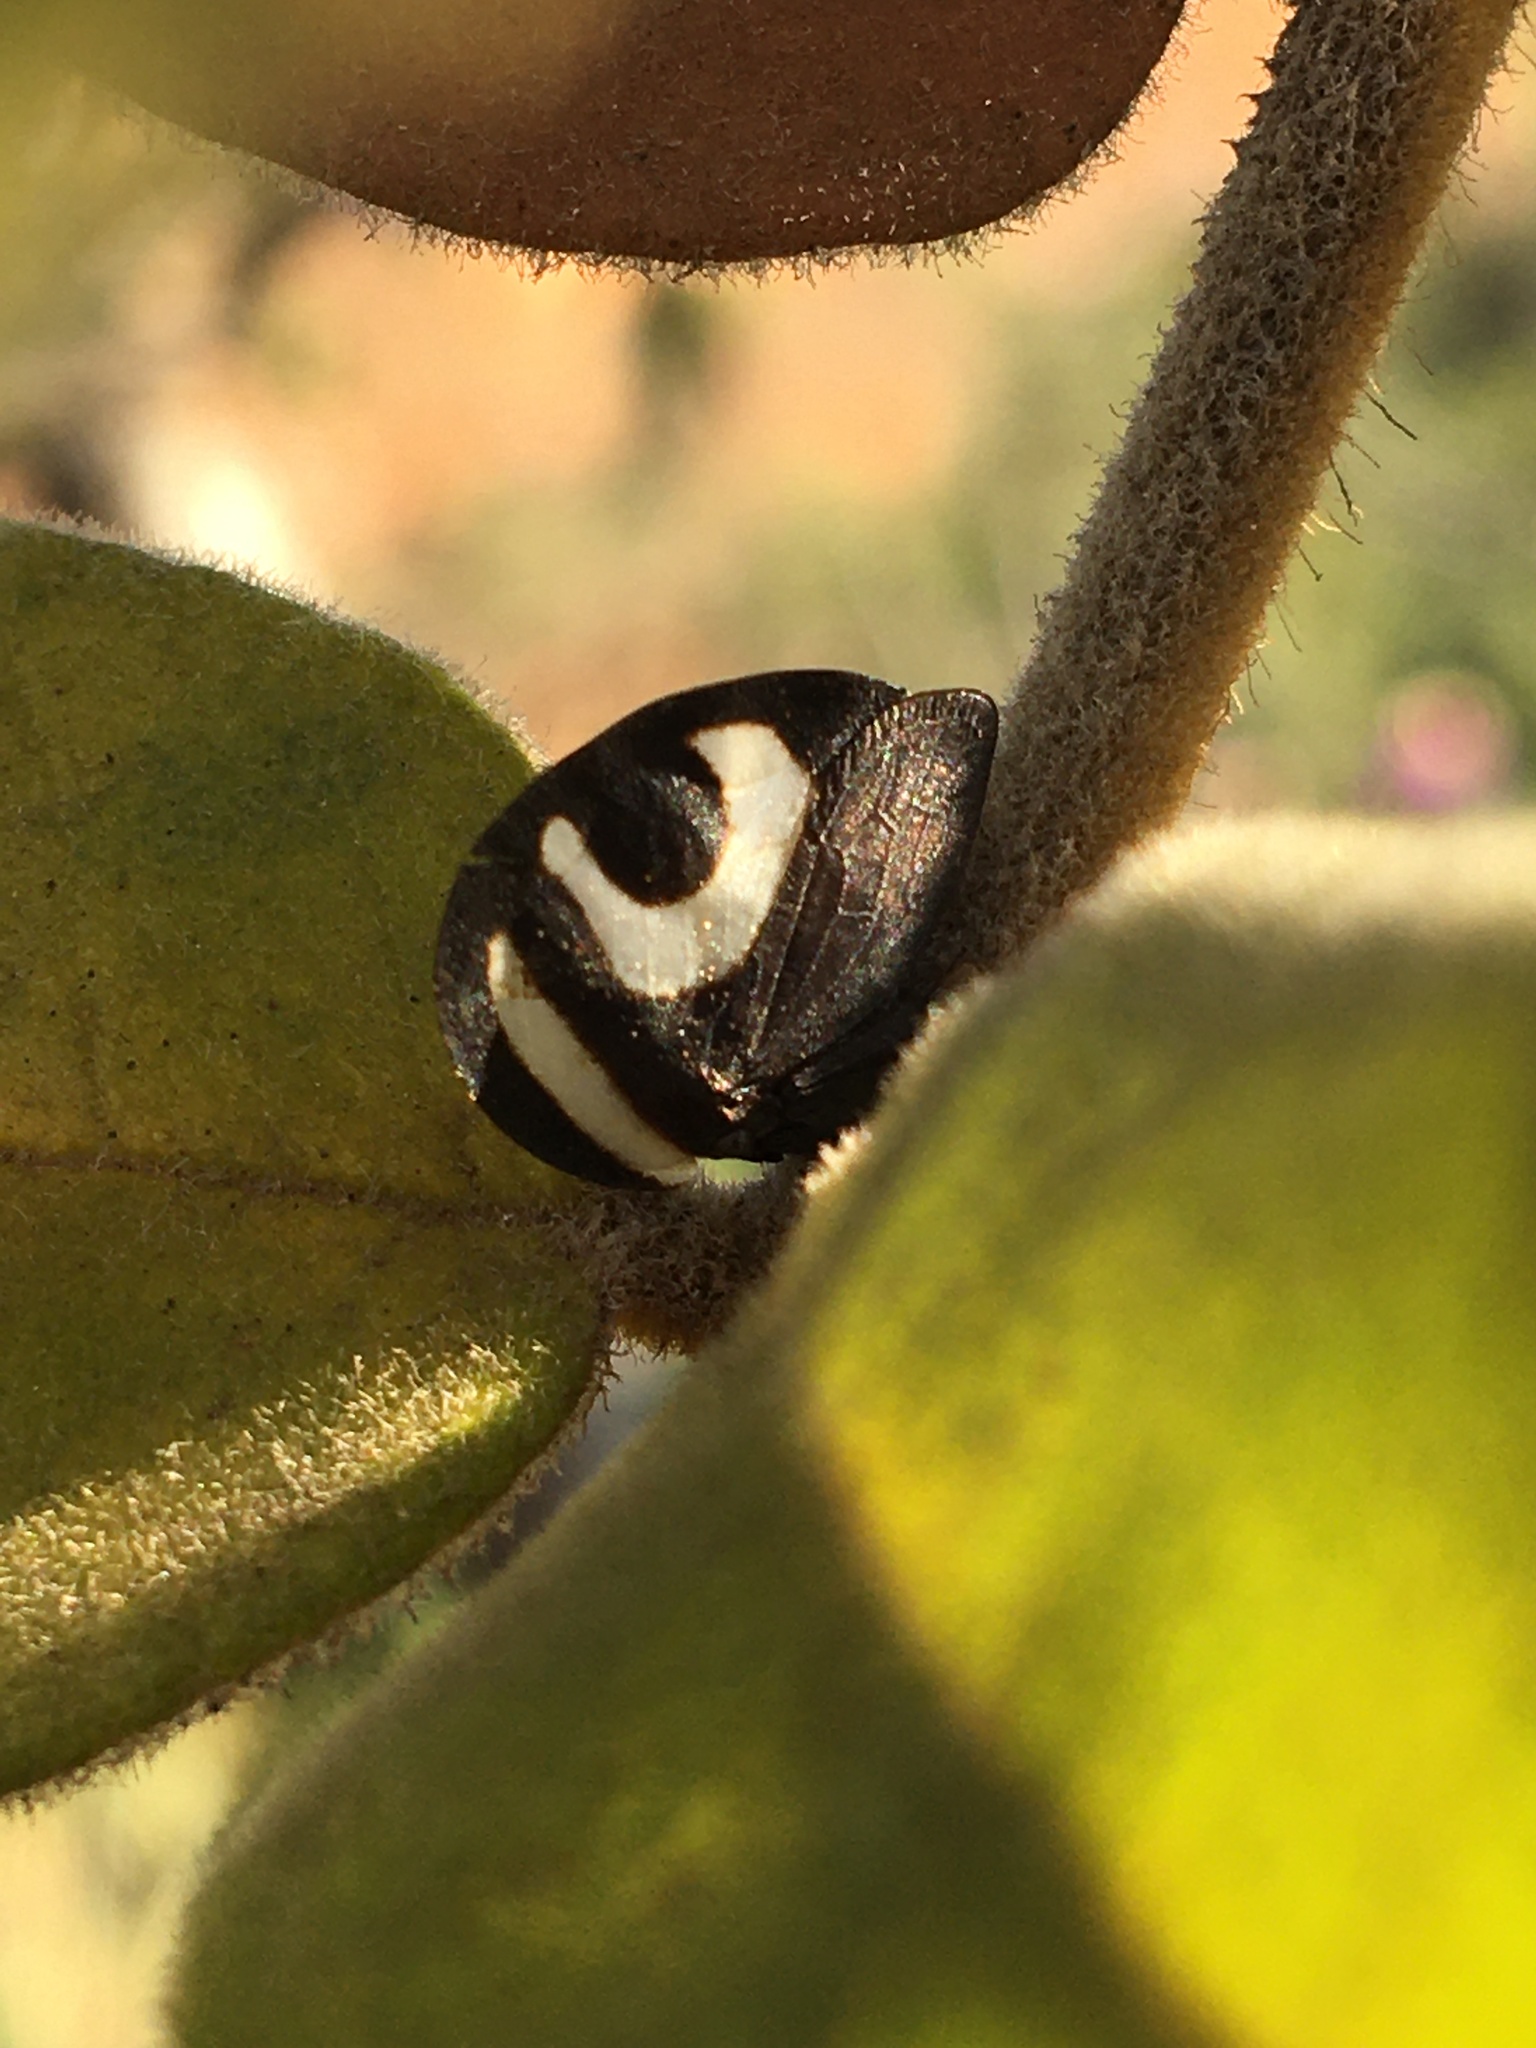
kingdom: Animalia
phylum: Arthropoda
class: Insecta
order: Hemiptera
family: Membracidae
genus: Membracis
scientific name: Membracis foliatafasciata
